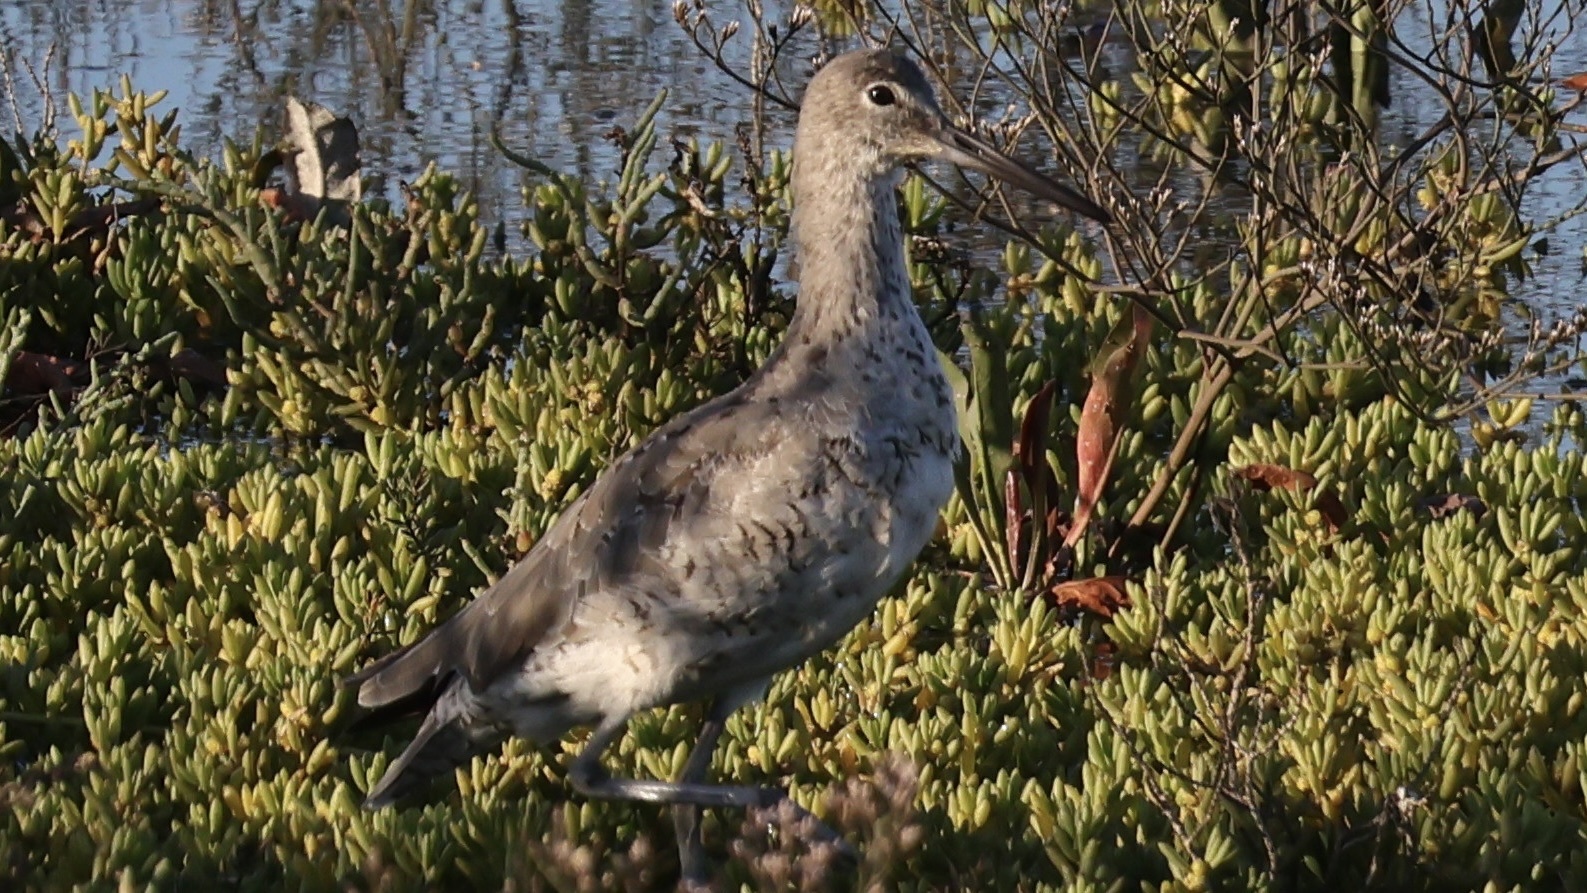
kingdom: Animalia
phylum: Chordata
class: Aves
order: Charadriiformes
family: Scolopacidae
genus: Tringa
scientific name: Tringa semipalmata
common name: Willet
